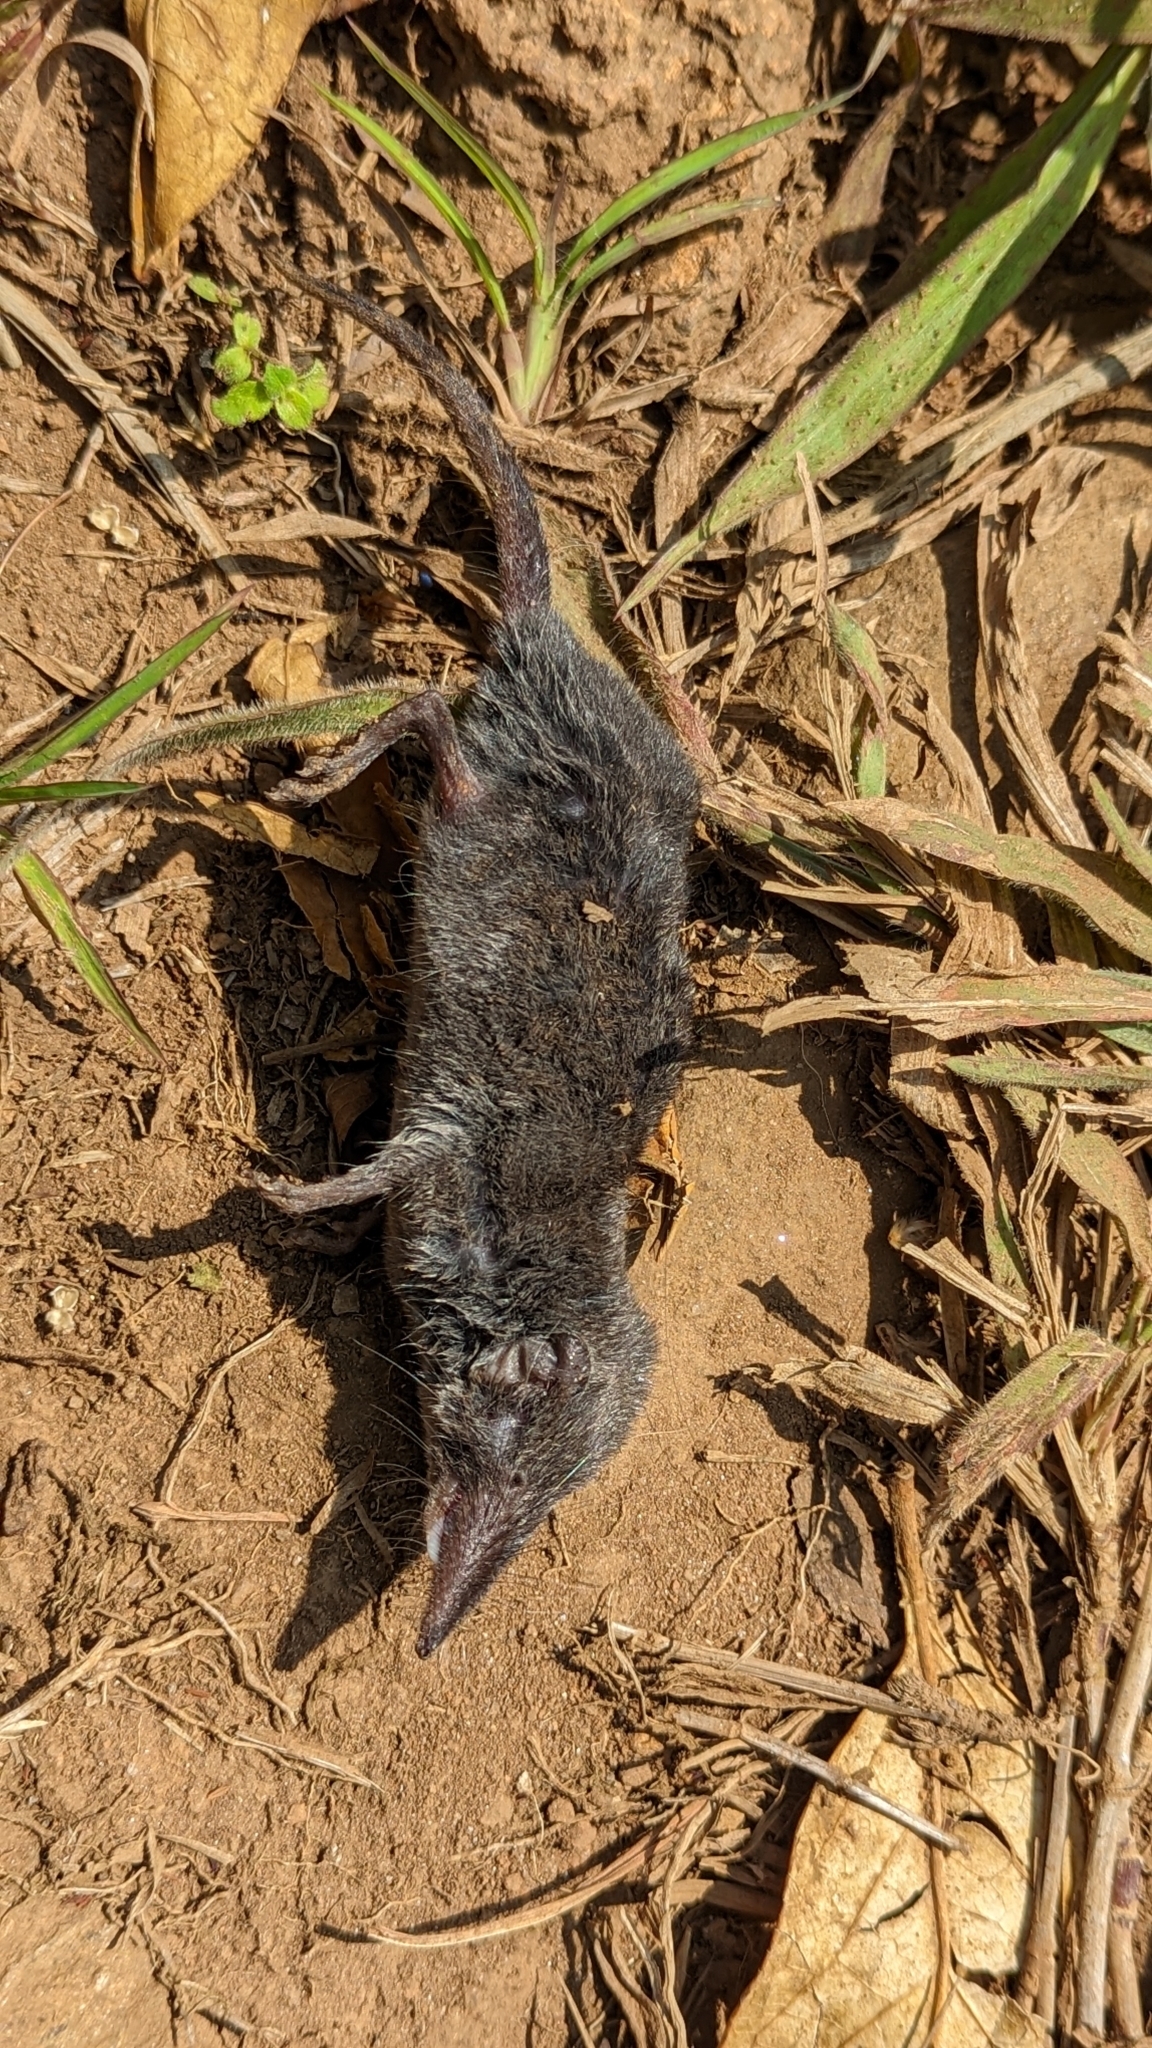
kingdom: Animalia
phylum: Chordata
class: Mammalia
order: Soricomorpha
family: Soricidae
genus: Suncus
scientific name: Suncus murinus
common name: Asian house shrew
